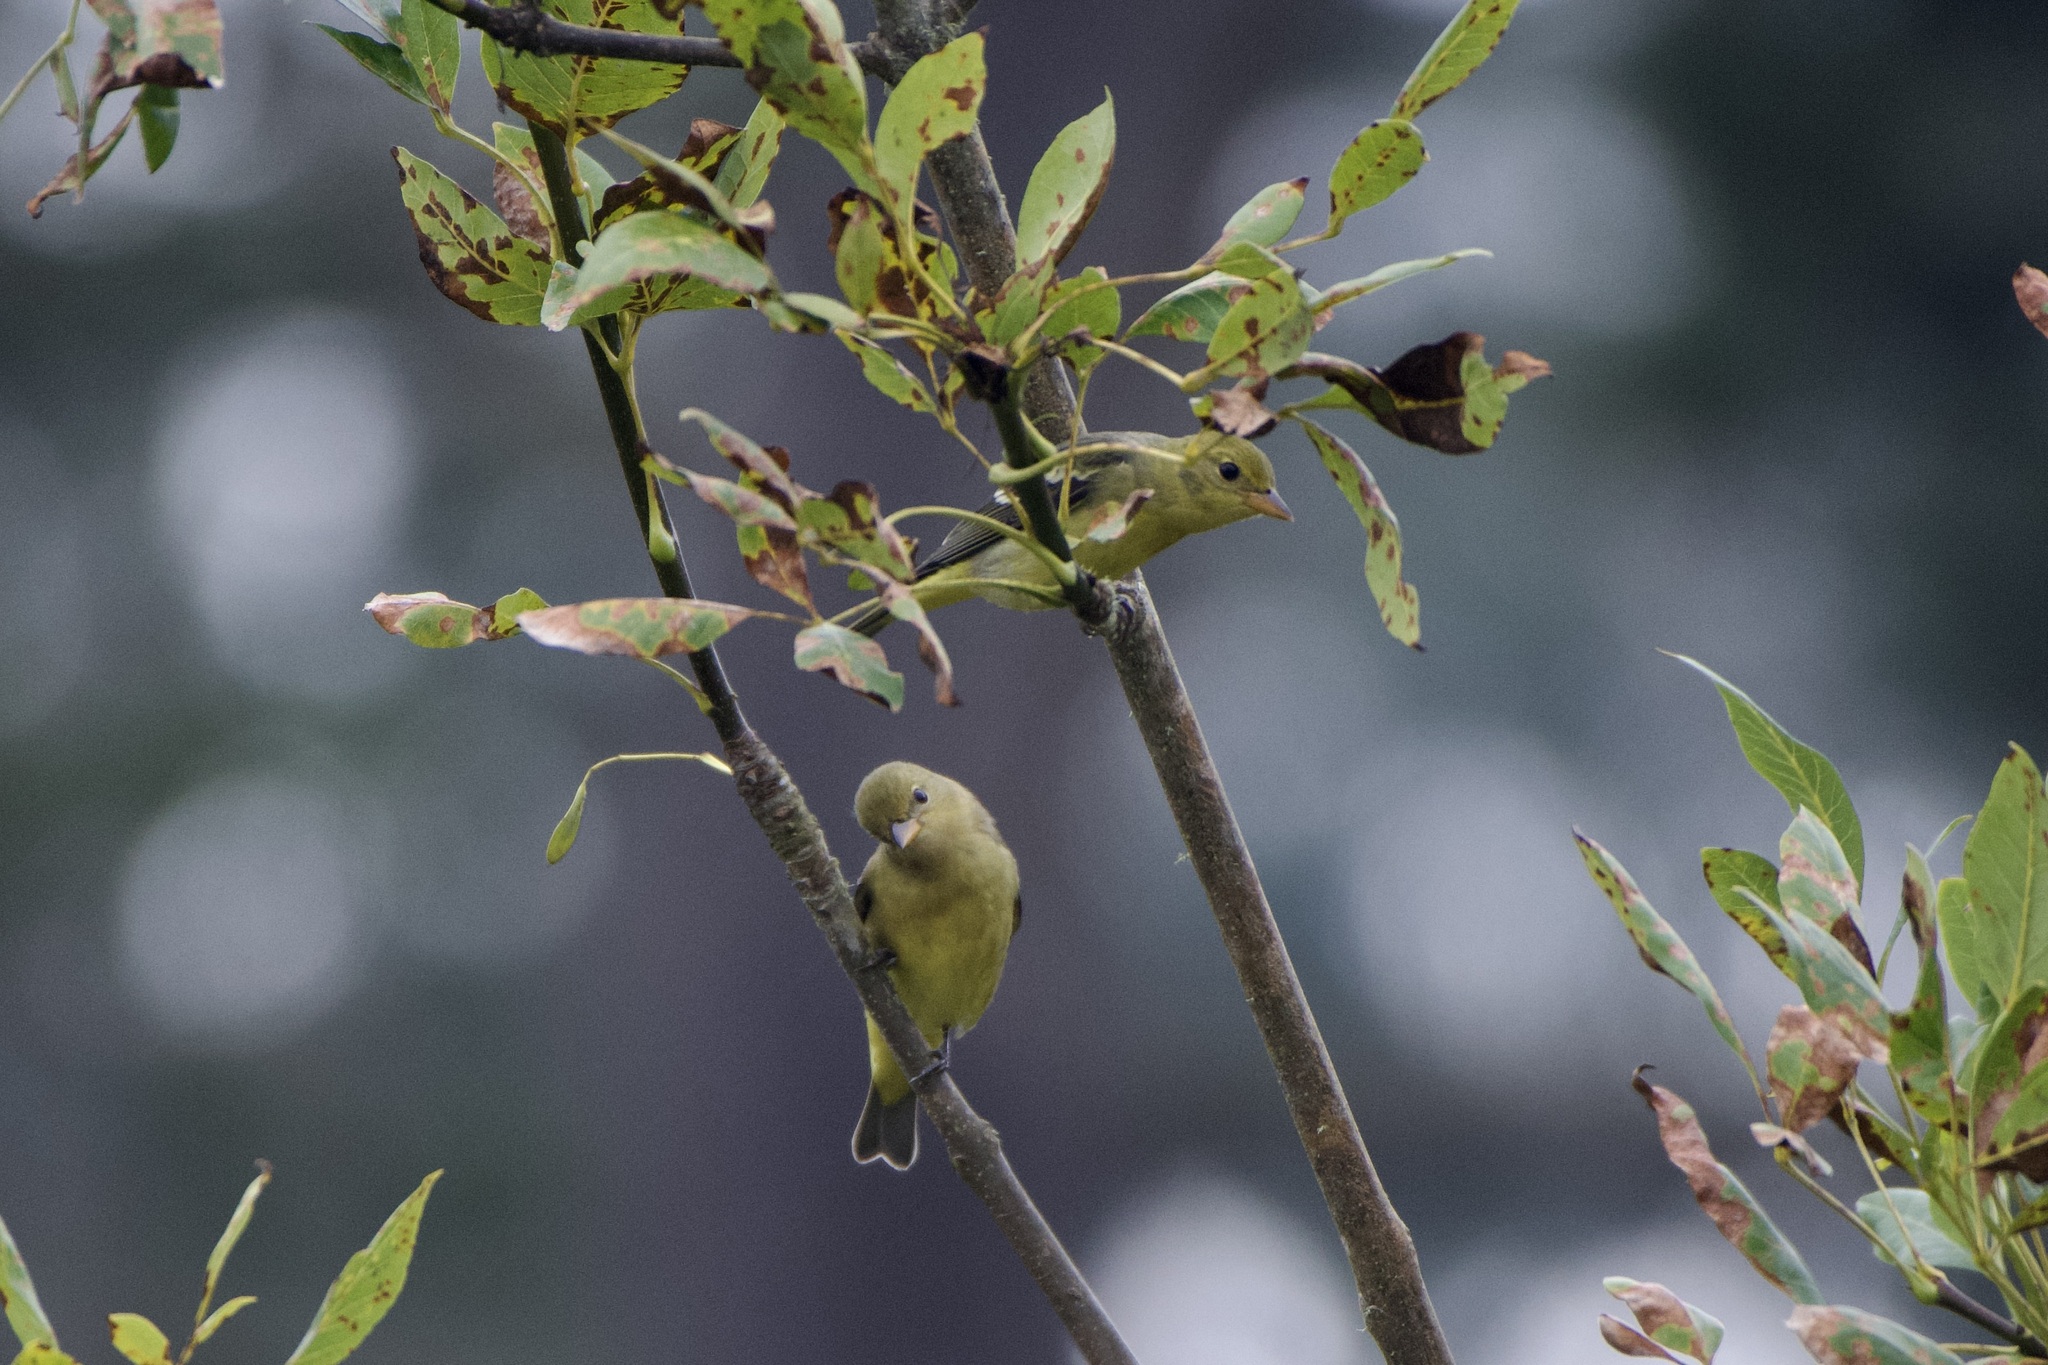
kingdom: Animalia
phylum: Chordata
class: Aves
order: Passeriformes
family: Cardinalidae
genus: Piranga
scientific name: Piranga ludoviciana
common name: Western tanager
